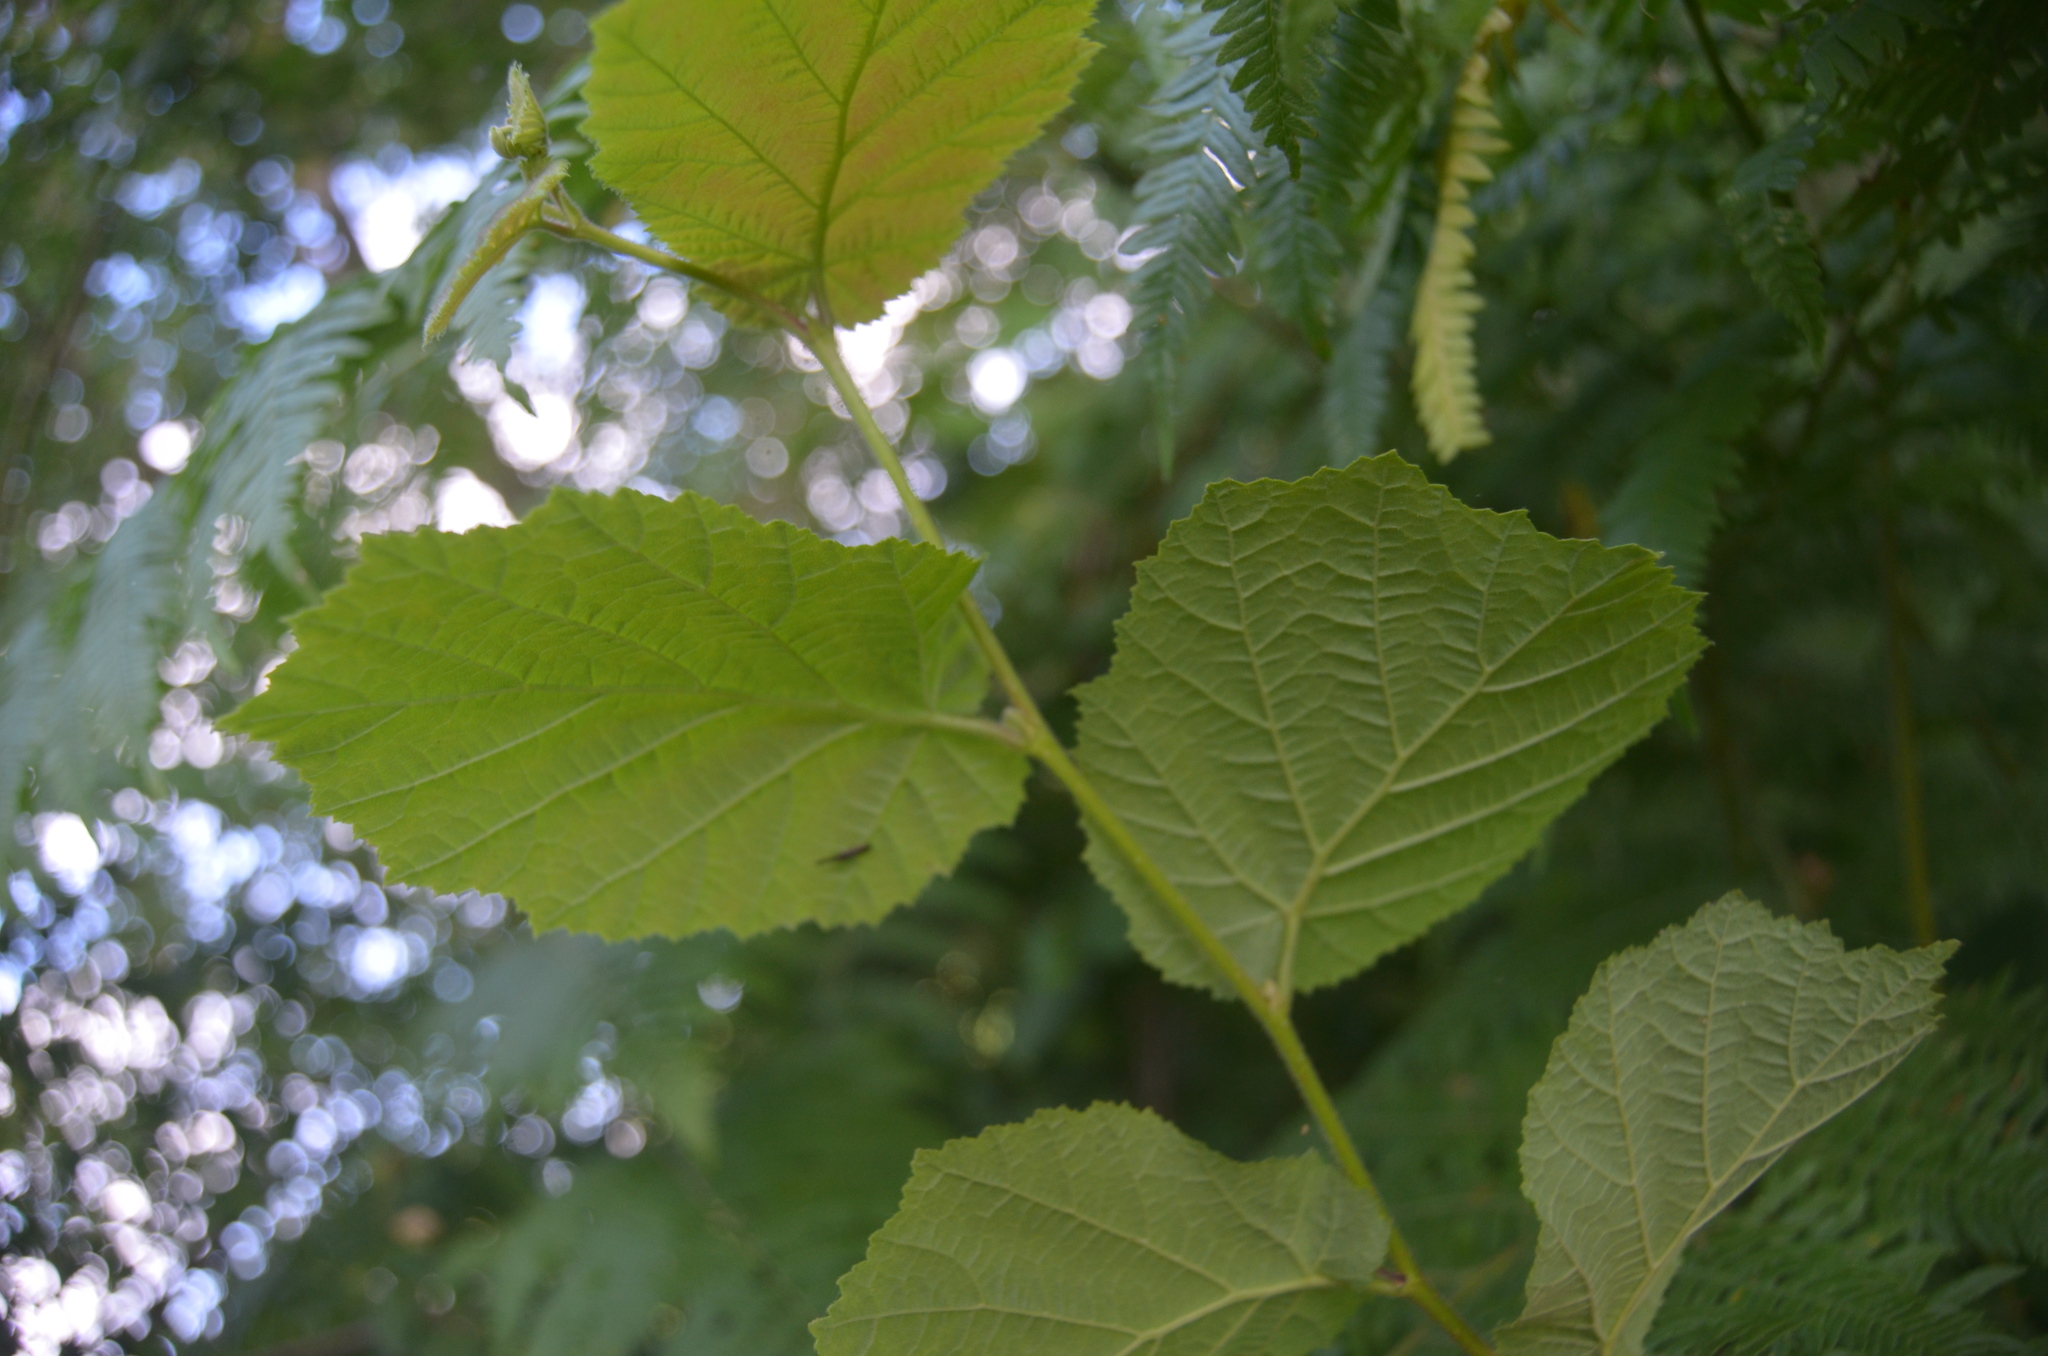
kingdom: Plantae
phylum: Tracheophyta
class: Magnoliopsida
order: Fagales
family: Betulaceae
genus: Corylus
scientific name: Corylus avellana
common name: European hazel
